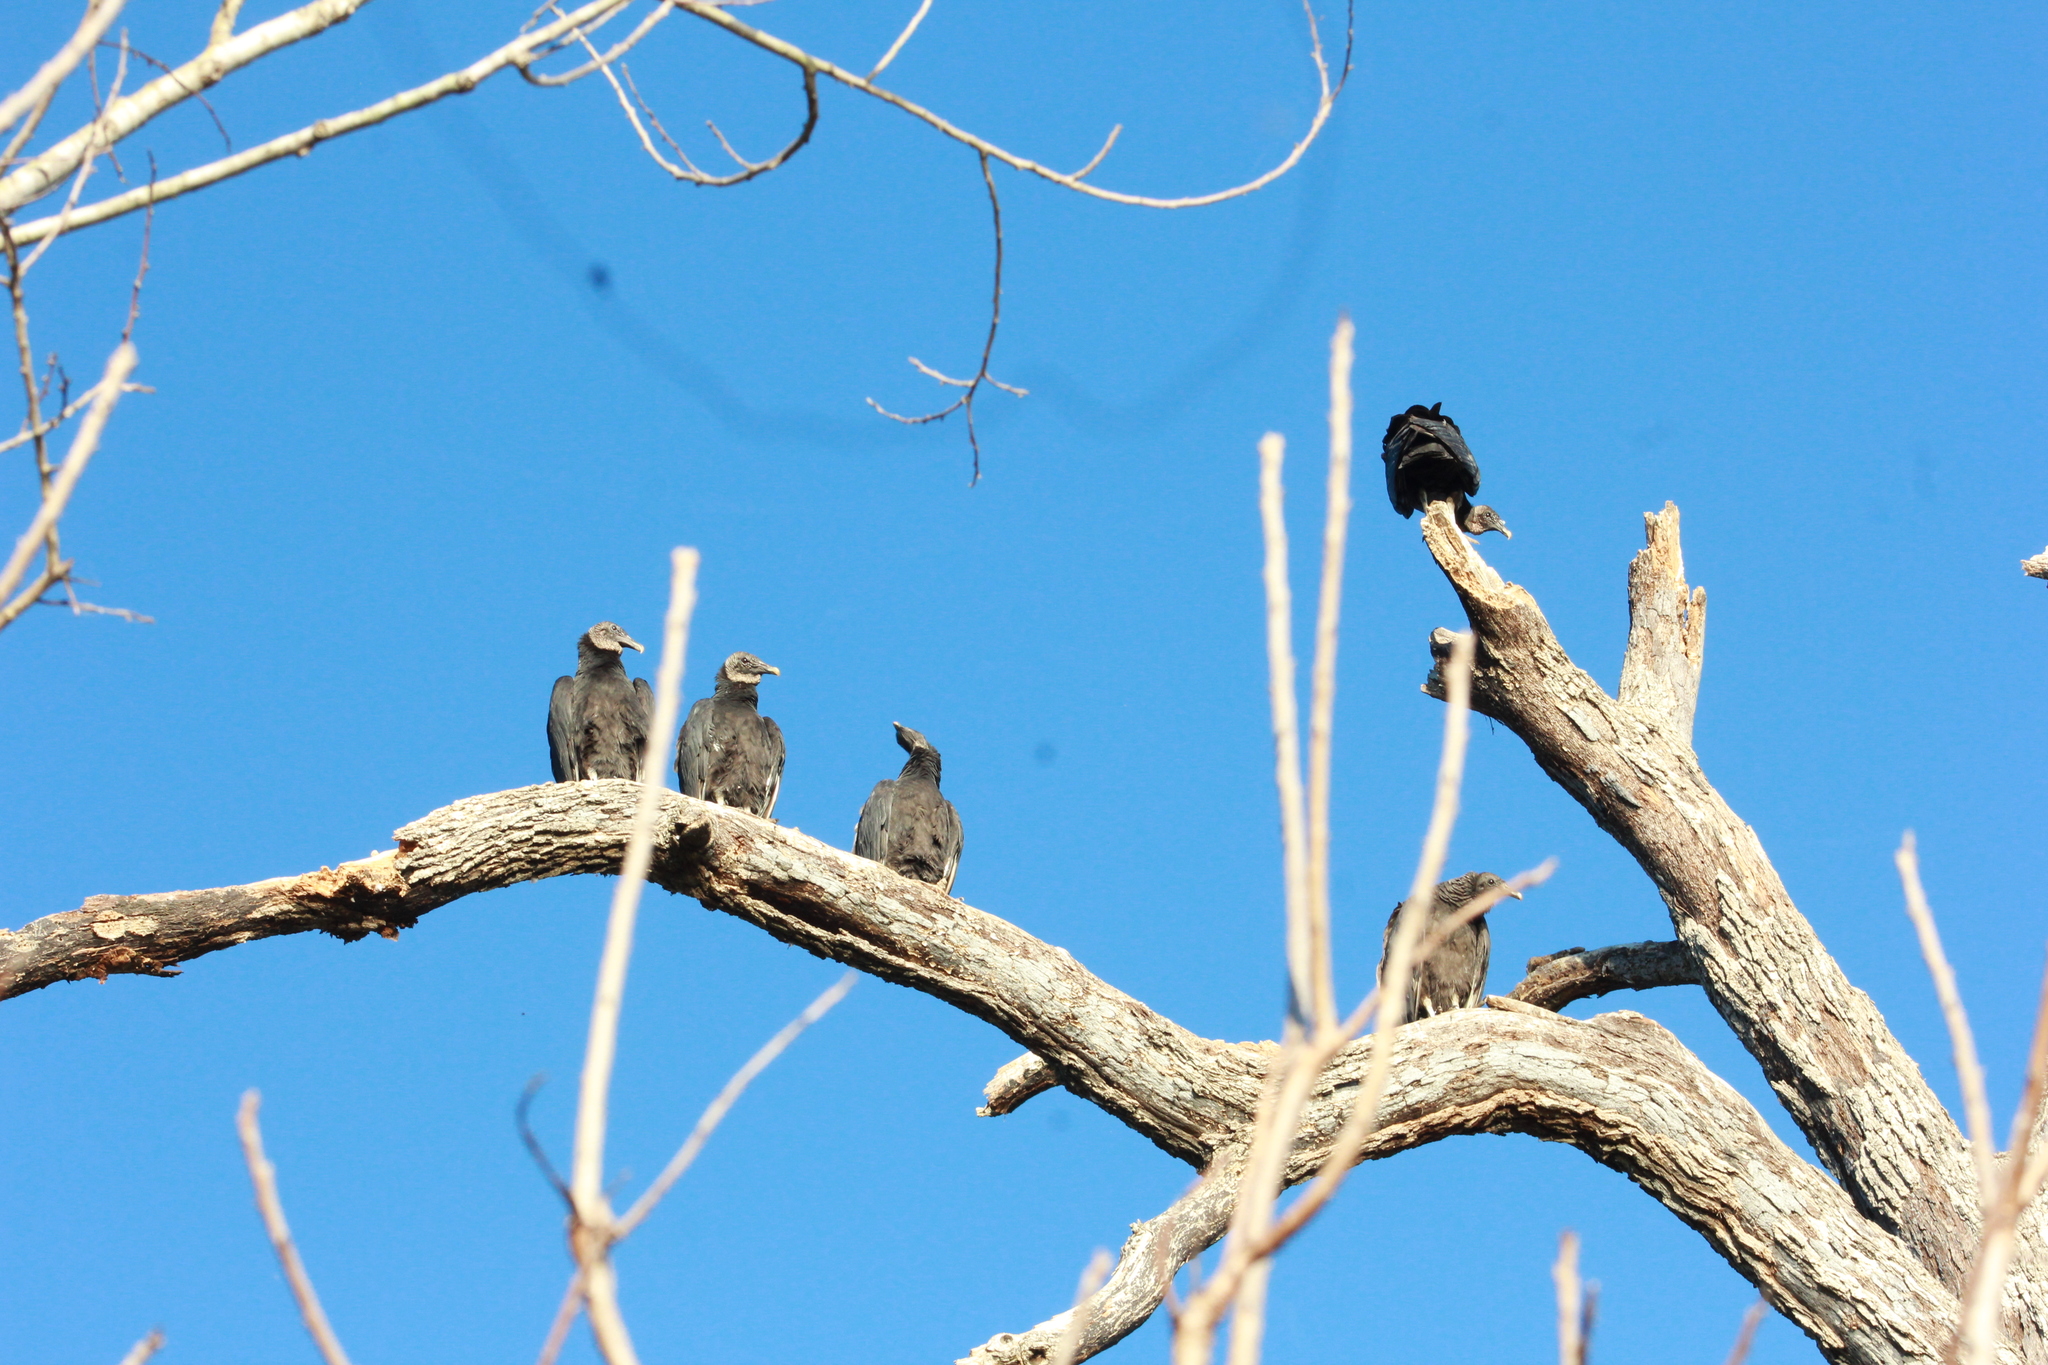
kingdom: Animalia
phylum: Chordata
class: Aves
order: Accipitriformes
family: Cathartidae
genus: Coragyps
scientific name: Coragyps atratus
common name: Black vulture
